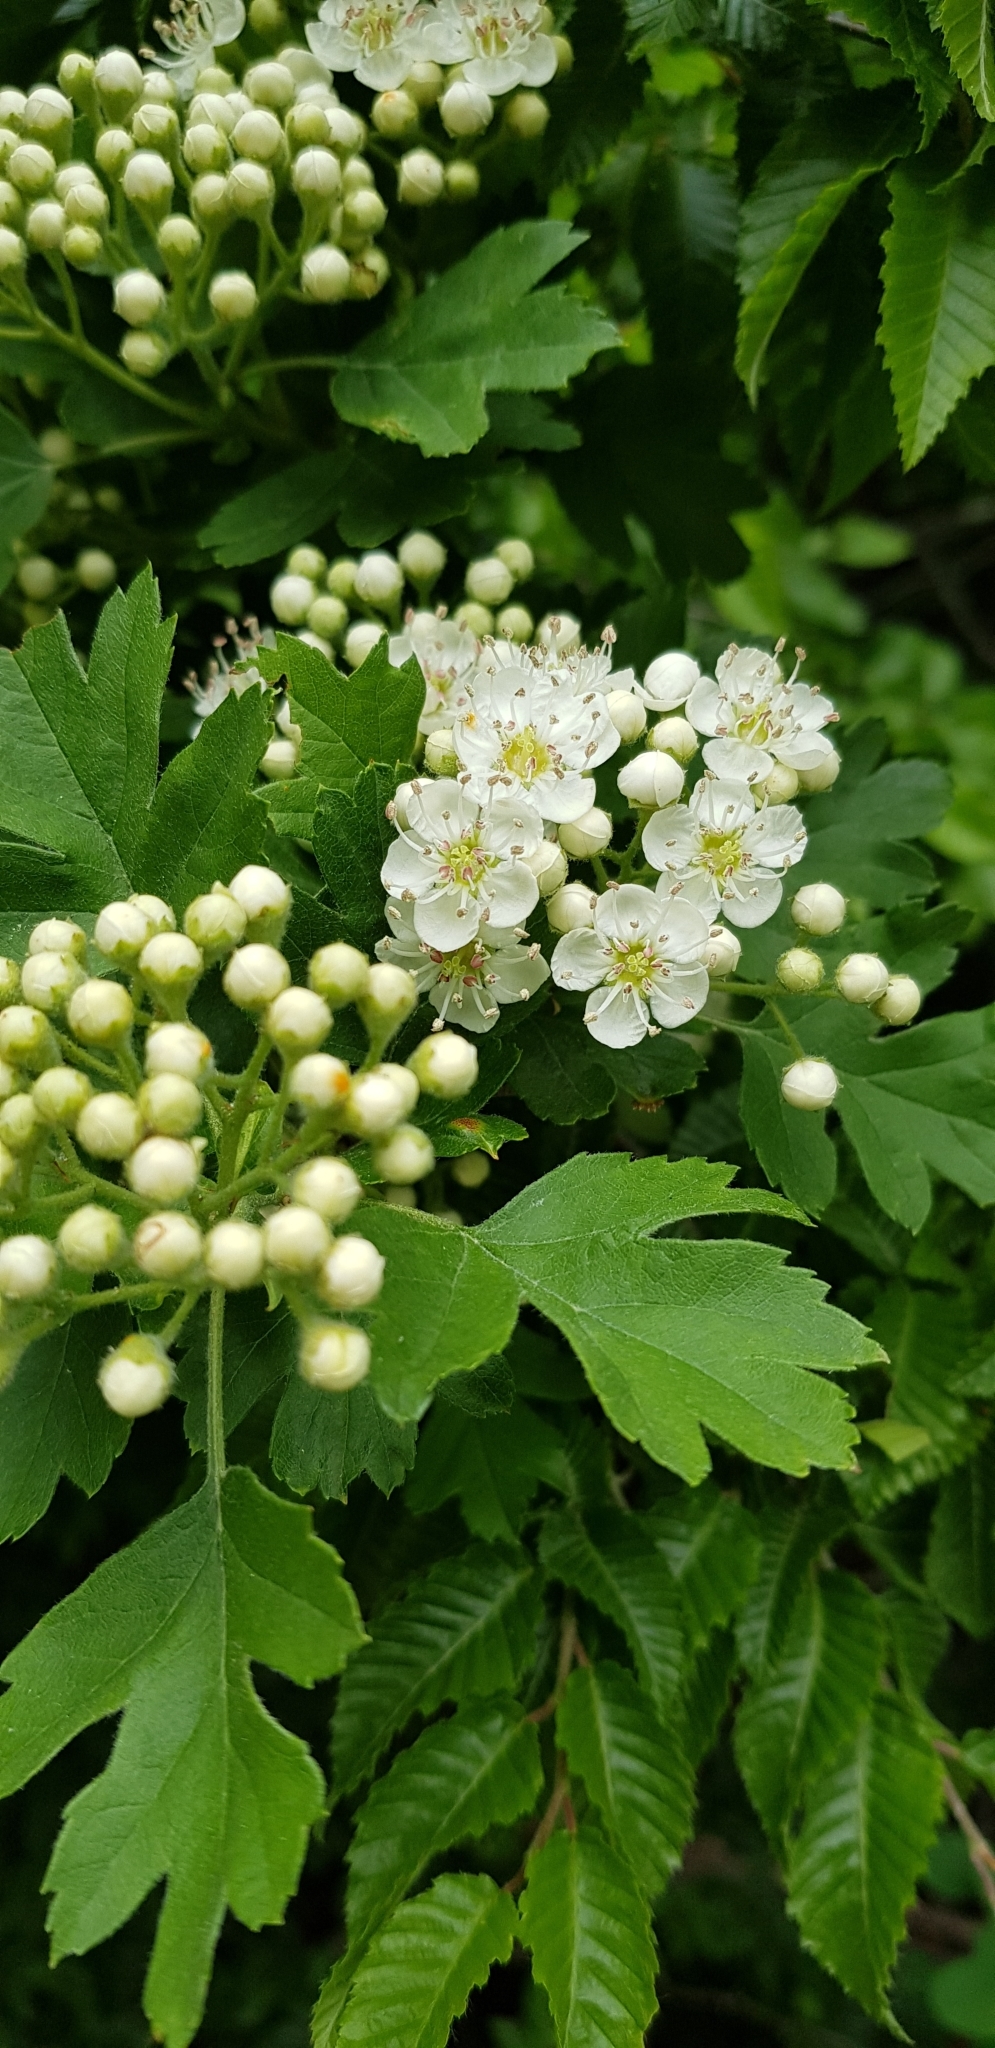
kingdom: Plantae
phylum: Tracheophyta
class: Magnoliopsida
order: Rosales
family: Rosaceae
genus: Crataegus
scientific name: Crataegus pentagyna
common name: Small-flowered black hawthorn
